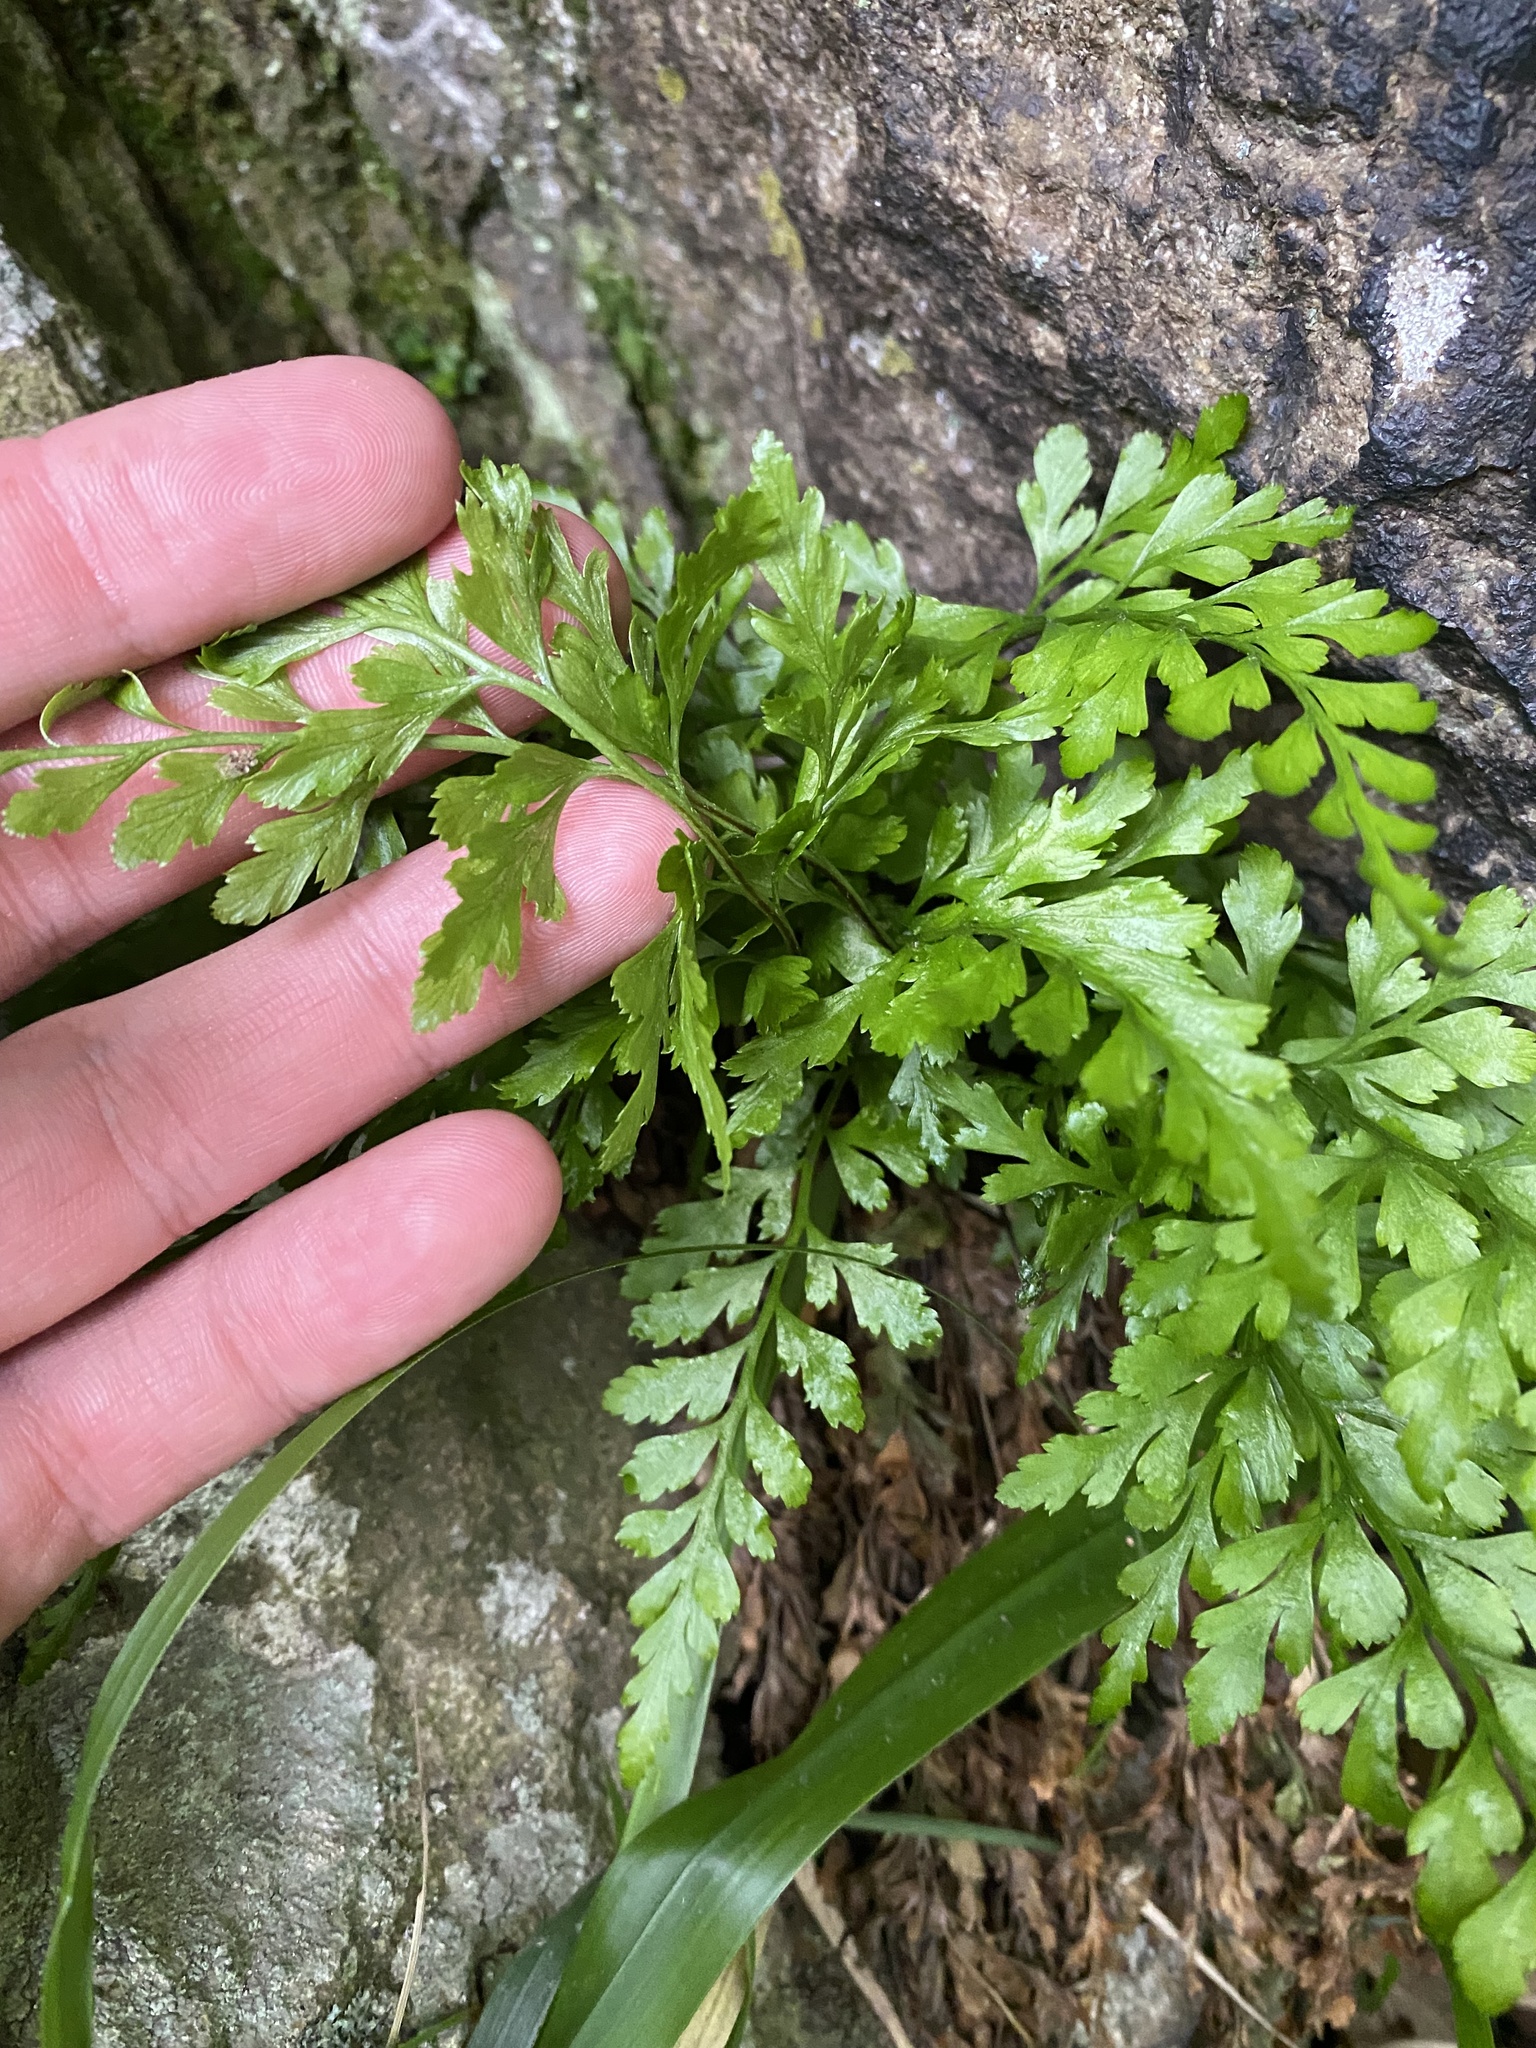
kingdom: Plantae
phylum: Tracheophyta
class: Polypodiopsida
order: Polypodiales
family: Aspleniaceae
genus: Asplenium
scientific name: Asplenium adiantum-nigrum
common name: Black spleenwort
